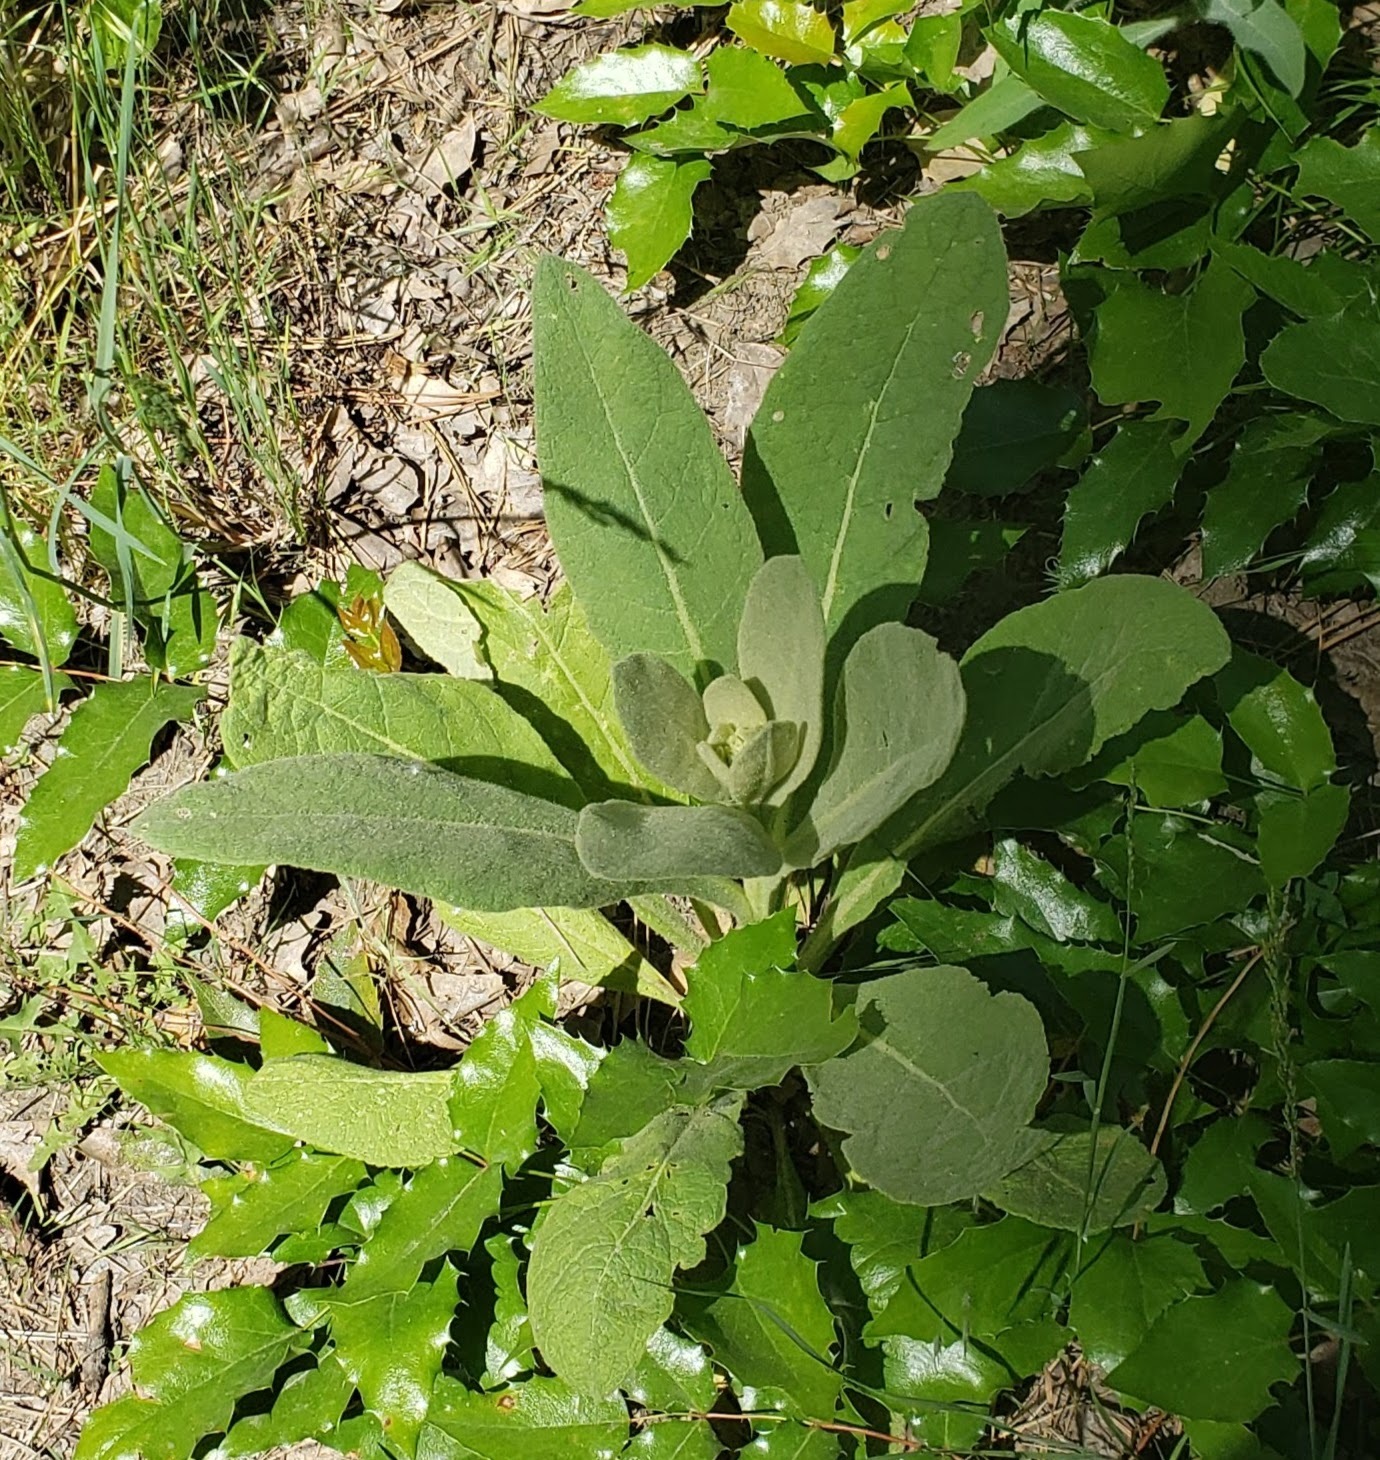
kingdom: Plantae
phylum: Tracheophyta
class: Magnoliopsida
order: Lamiales
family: Scrophulariaceae
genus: Verbascum
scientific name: Verbascum thapsus
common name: Common mullein
